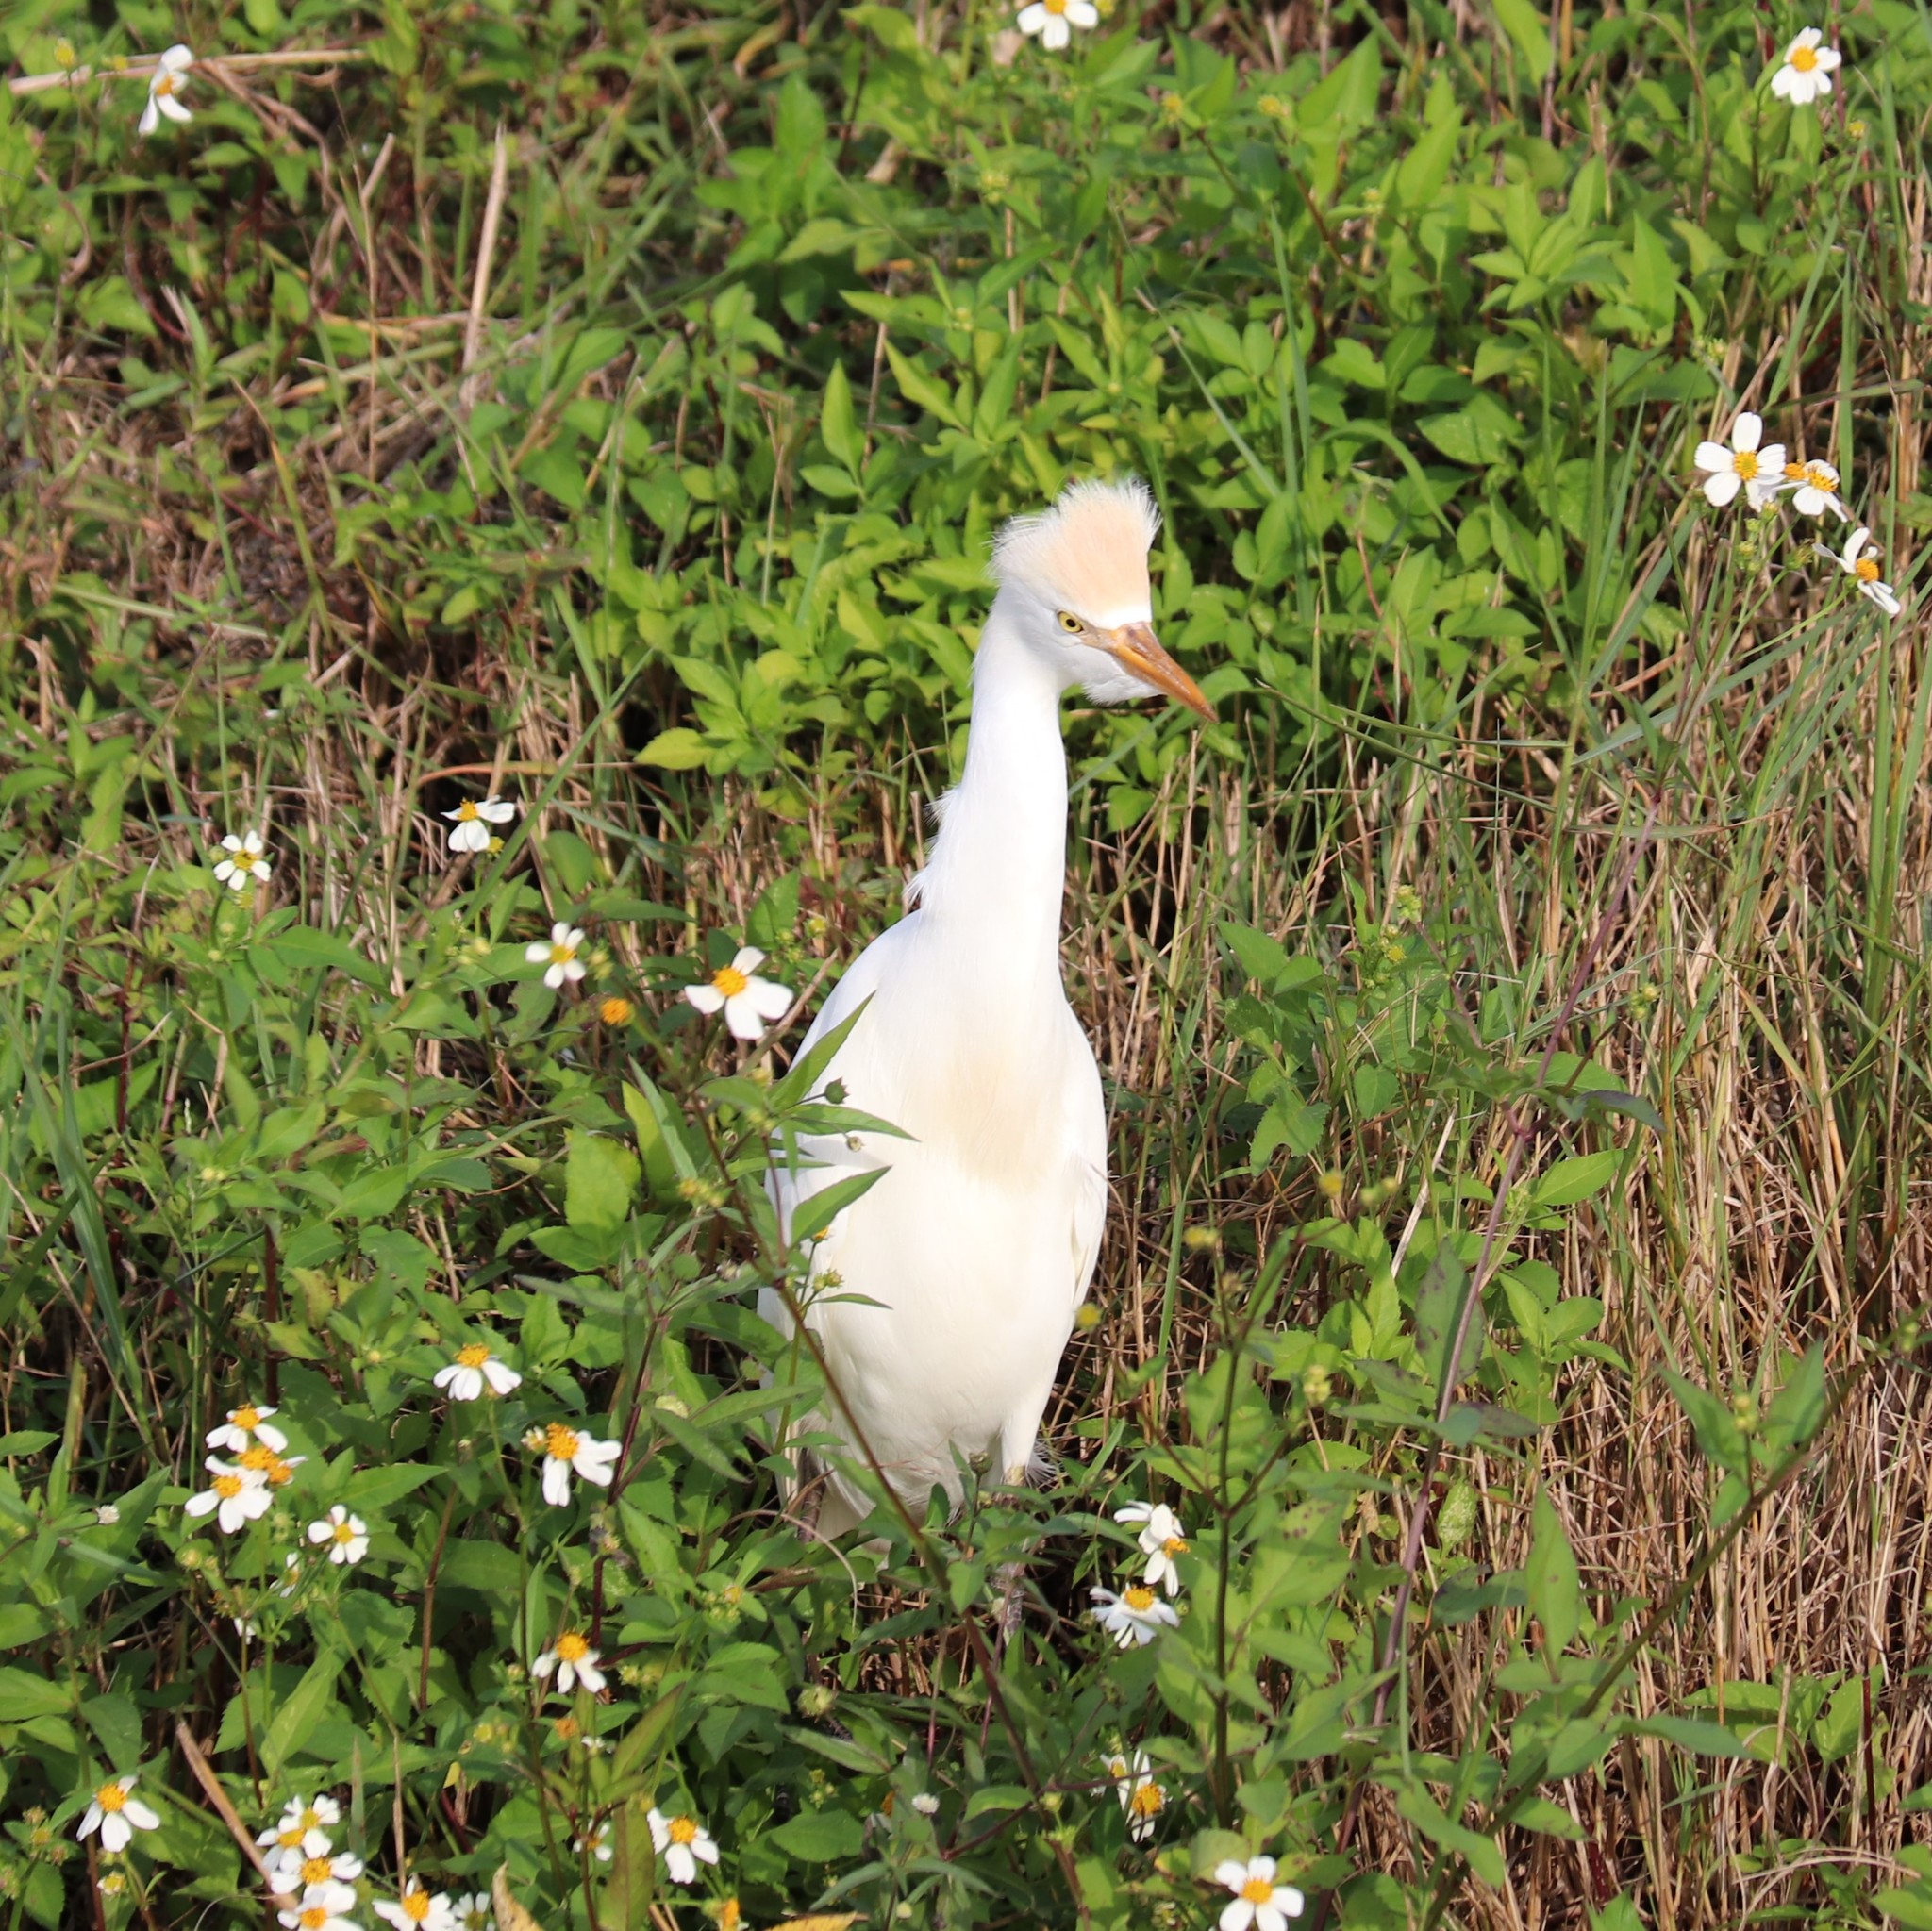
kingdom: Animalia
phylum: Chordata
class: Aves
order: Pelecaniformes
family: Ardeidae
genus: Bubulcus
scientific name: Bubulcus ibis
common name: Cattle egret
